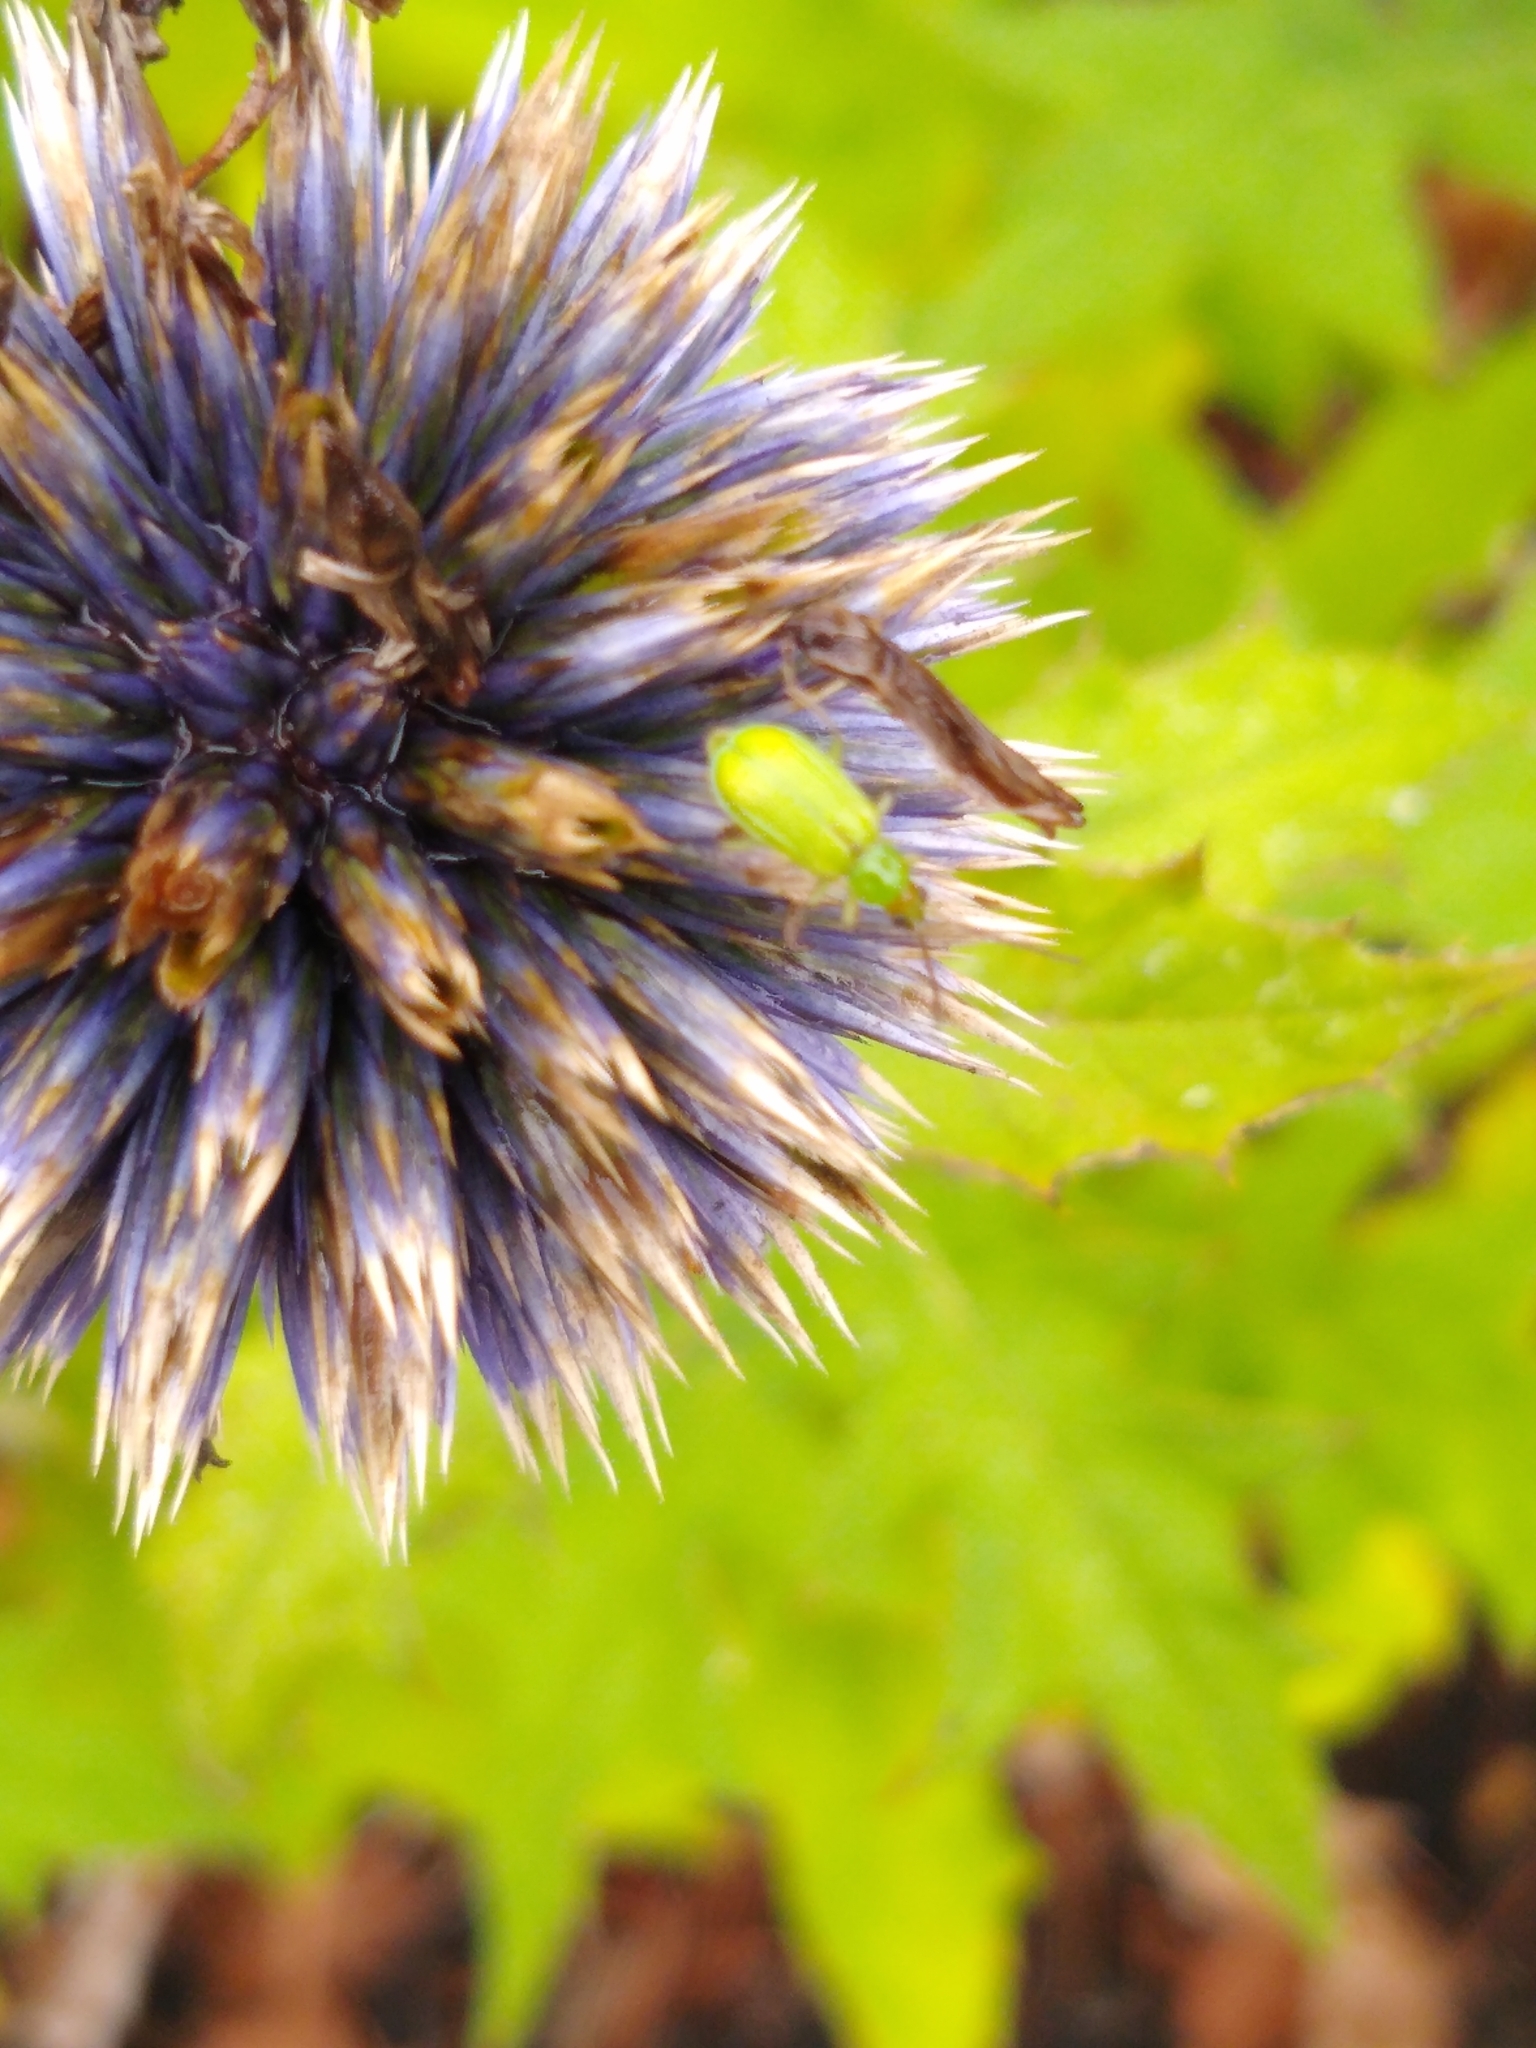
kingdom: Animalia
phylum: Arthropoda
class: Insecta
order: Coleoptera
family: Chrysomelidae
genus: Diabrotica
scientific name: Diabrotica barberi
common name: Northern corn rootworm
